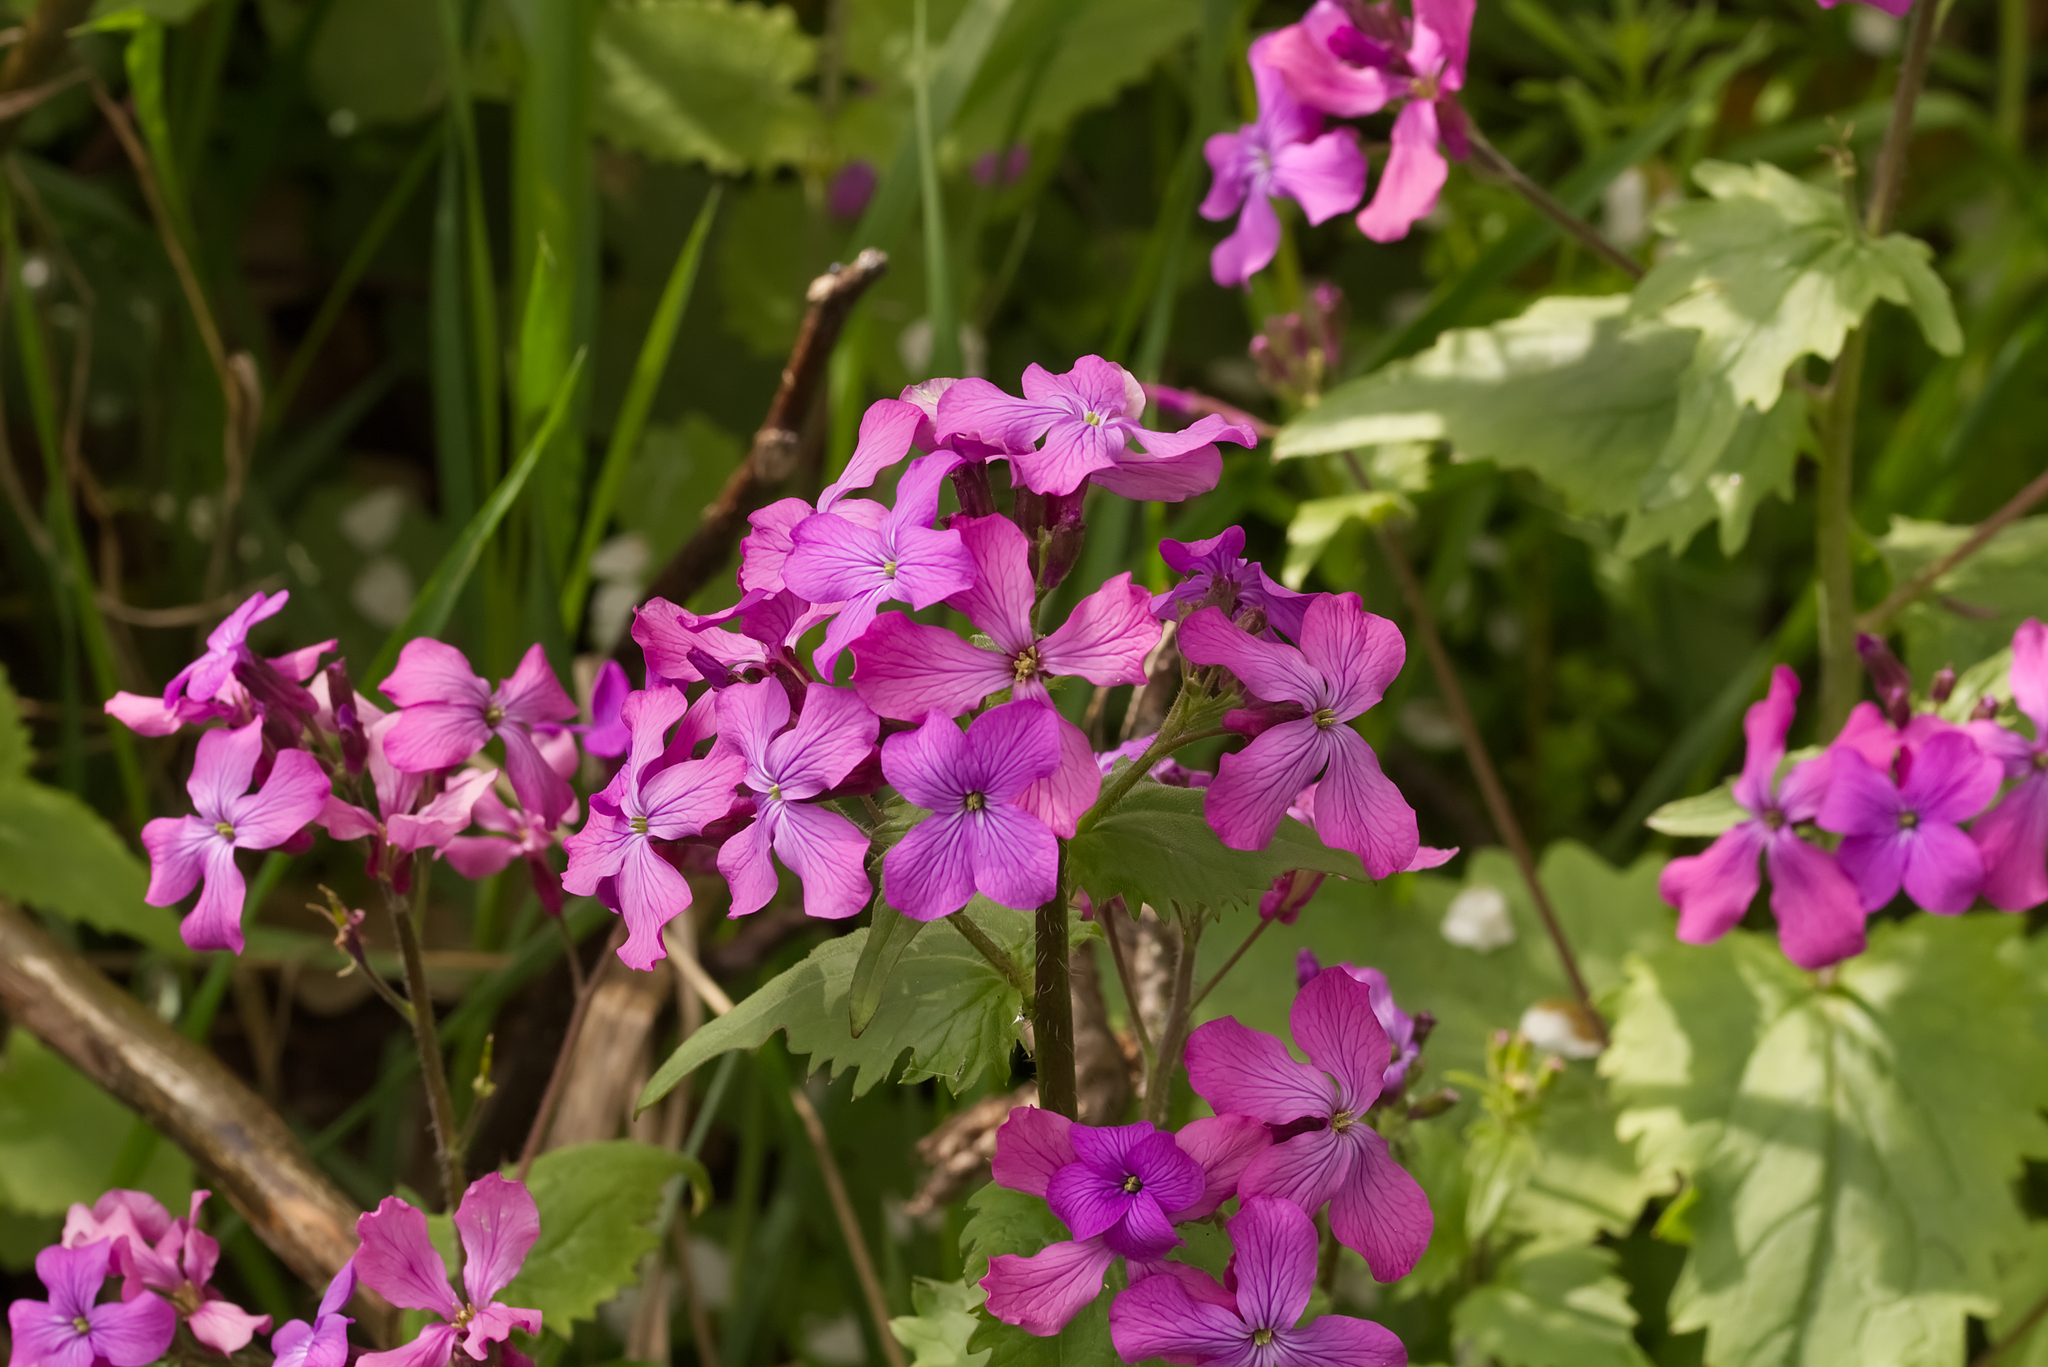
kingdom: Plantae
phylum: Tracheophyta
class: Magnoliopsida
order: Brassicales
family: Brassicaceae
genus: Lunaria
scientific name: Lunaria annua
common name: Honesty
